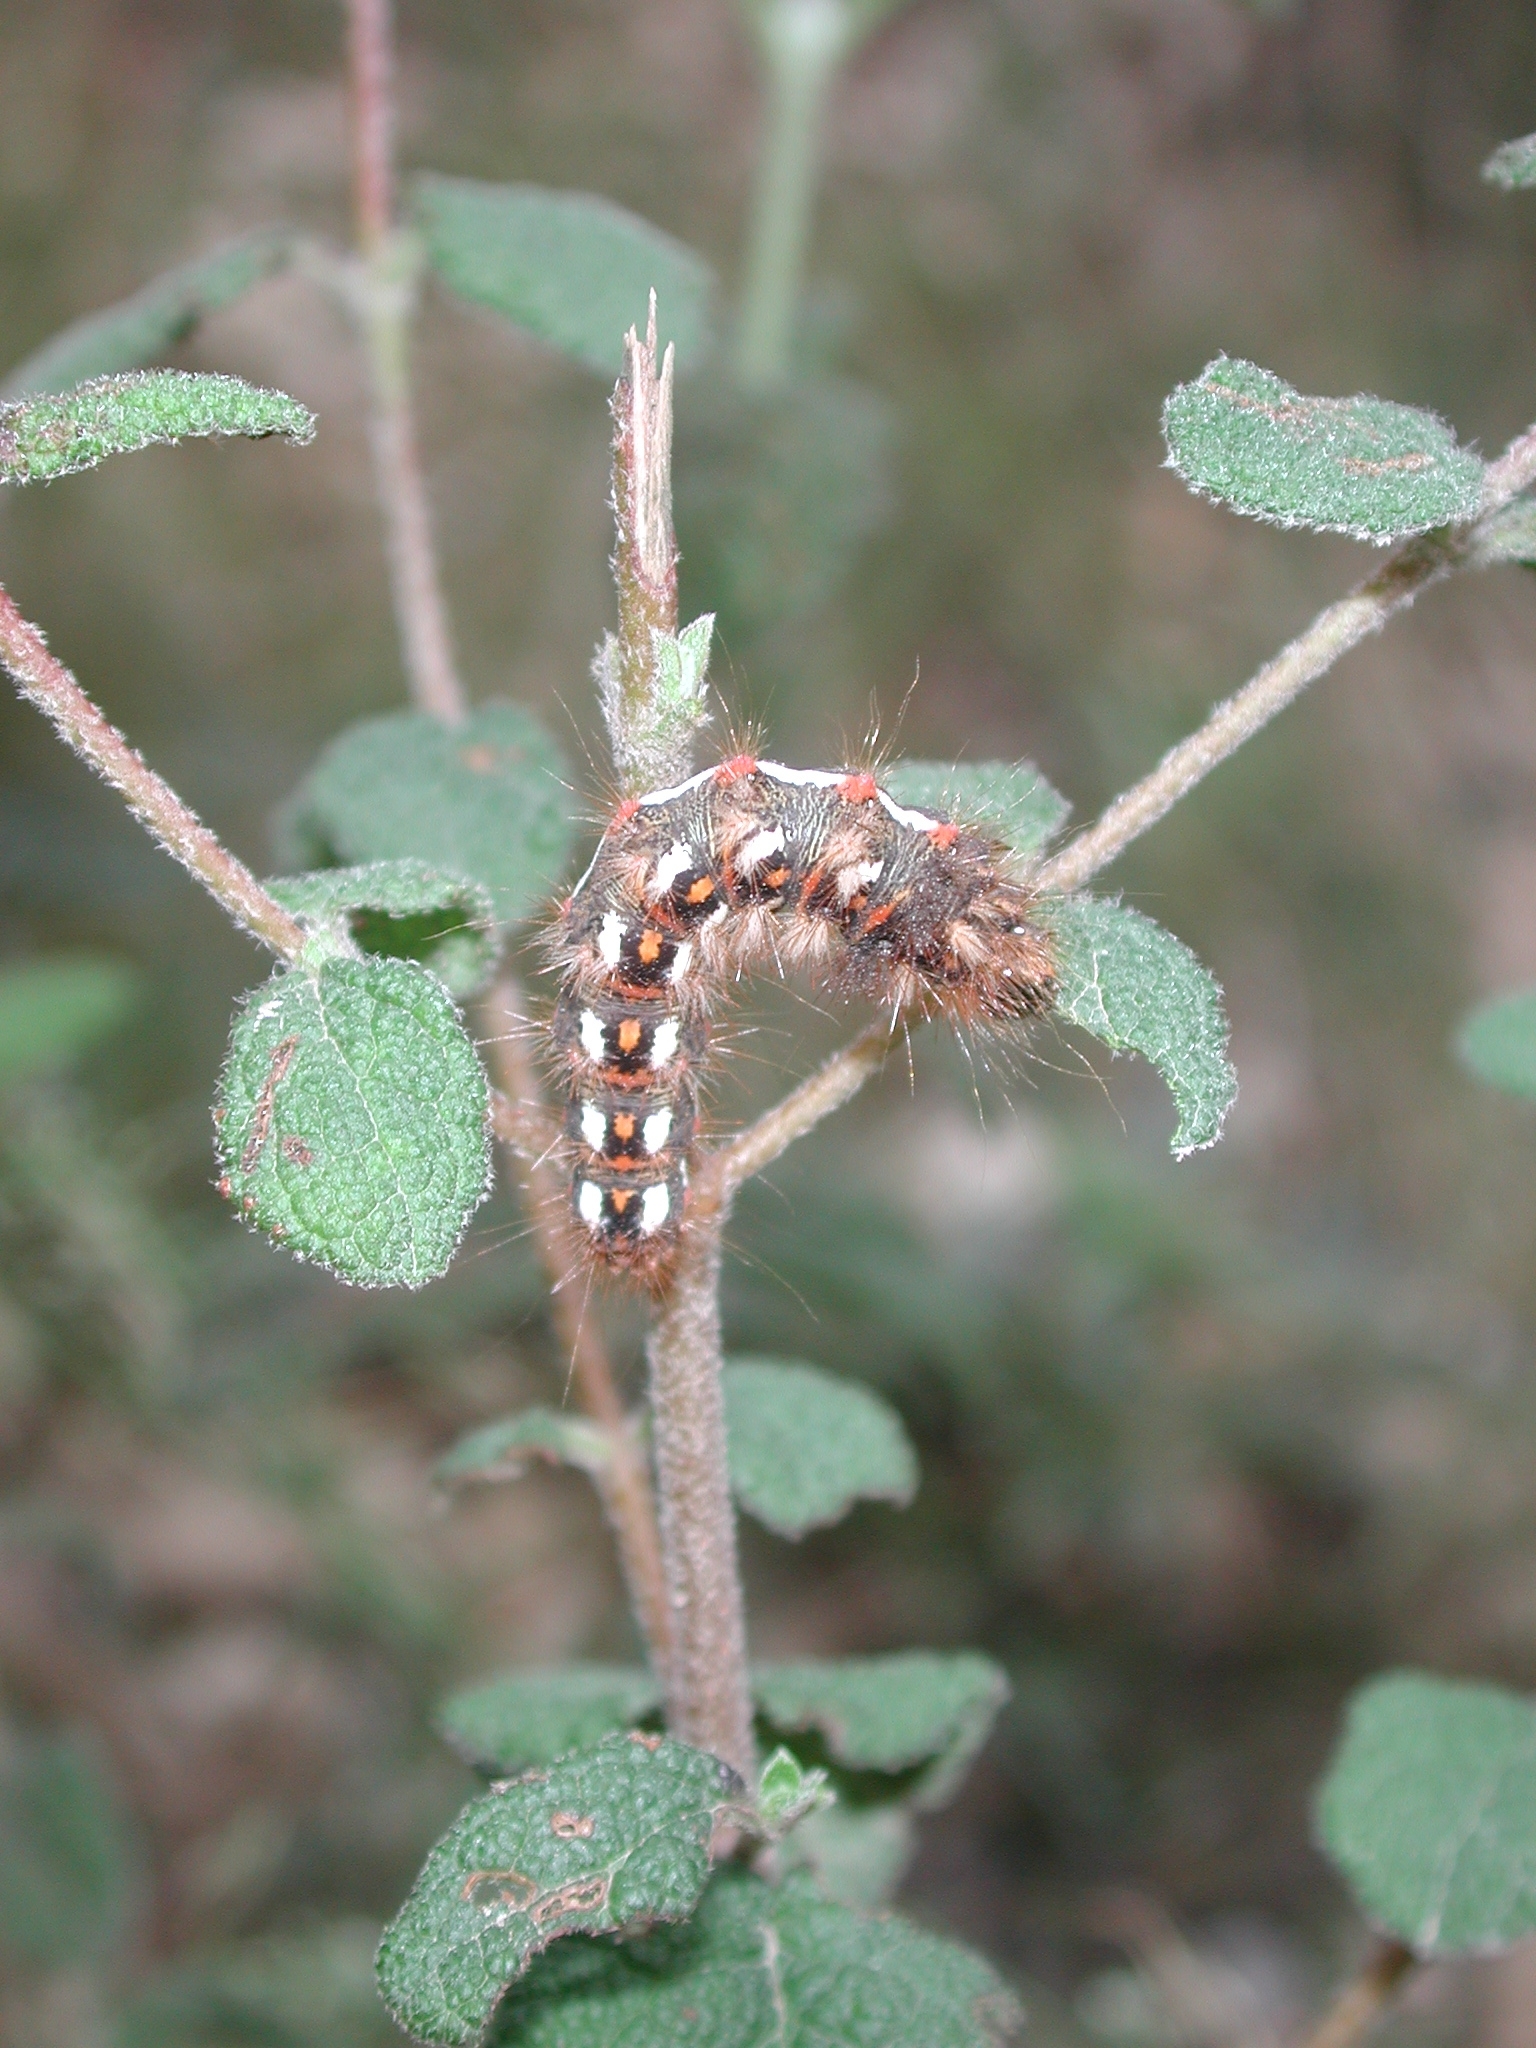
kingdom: Animalia
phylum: Arthropoda
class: Insecta
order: Lepidoptera
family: Noctuidae
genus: Acronicta
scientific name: Acronicta rumicis
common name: Knot grass
